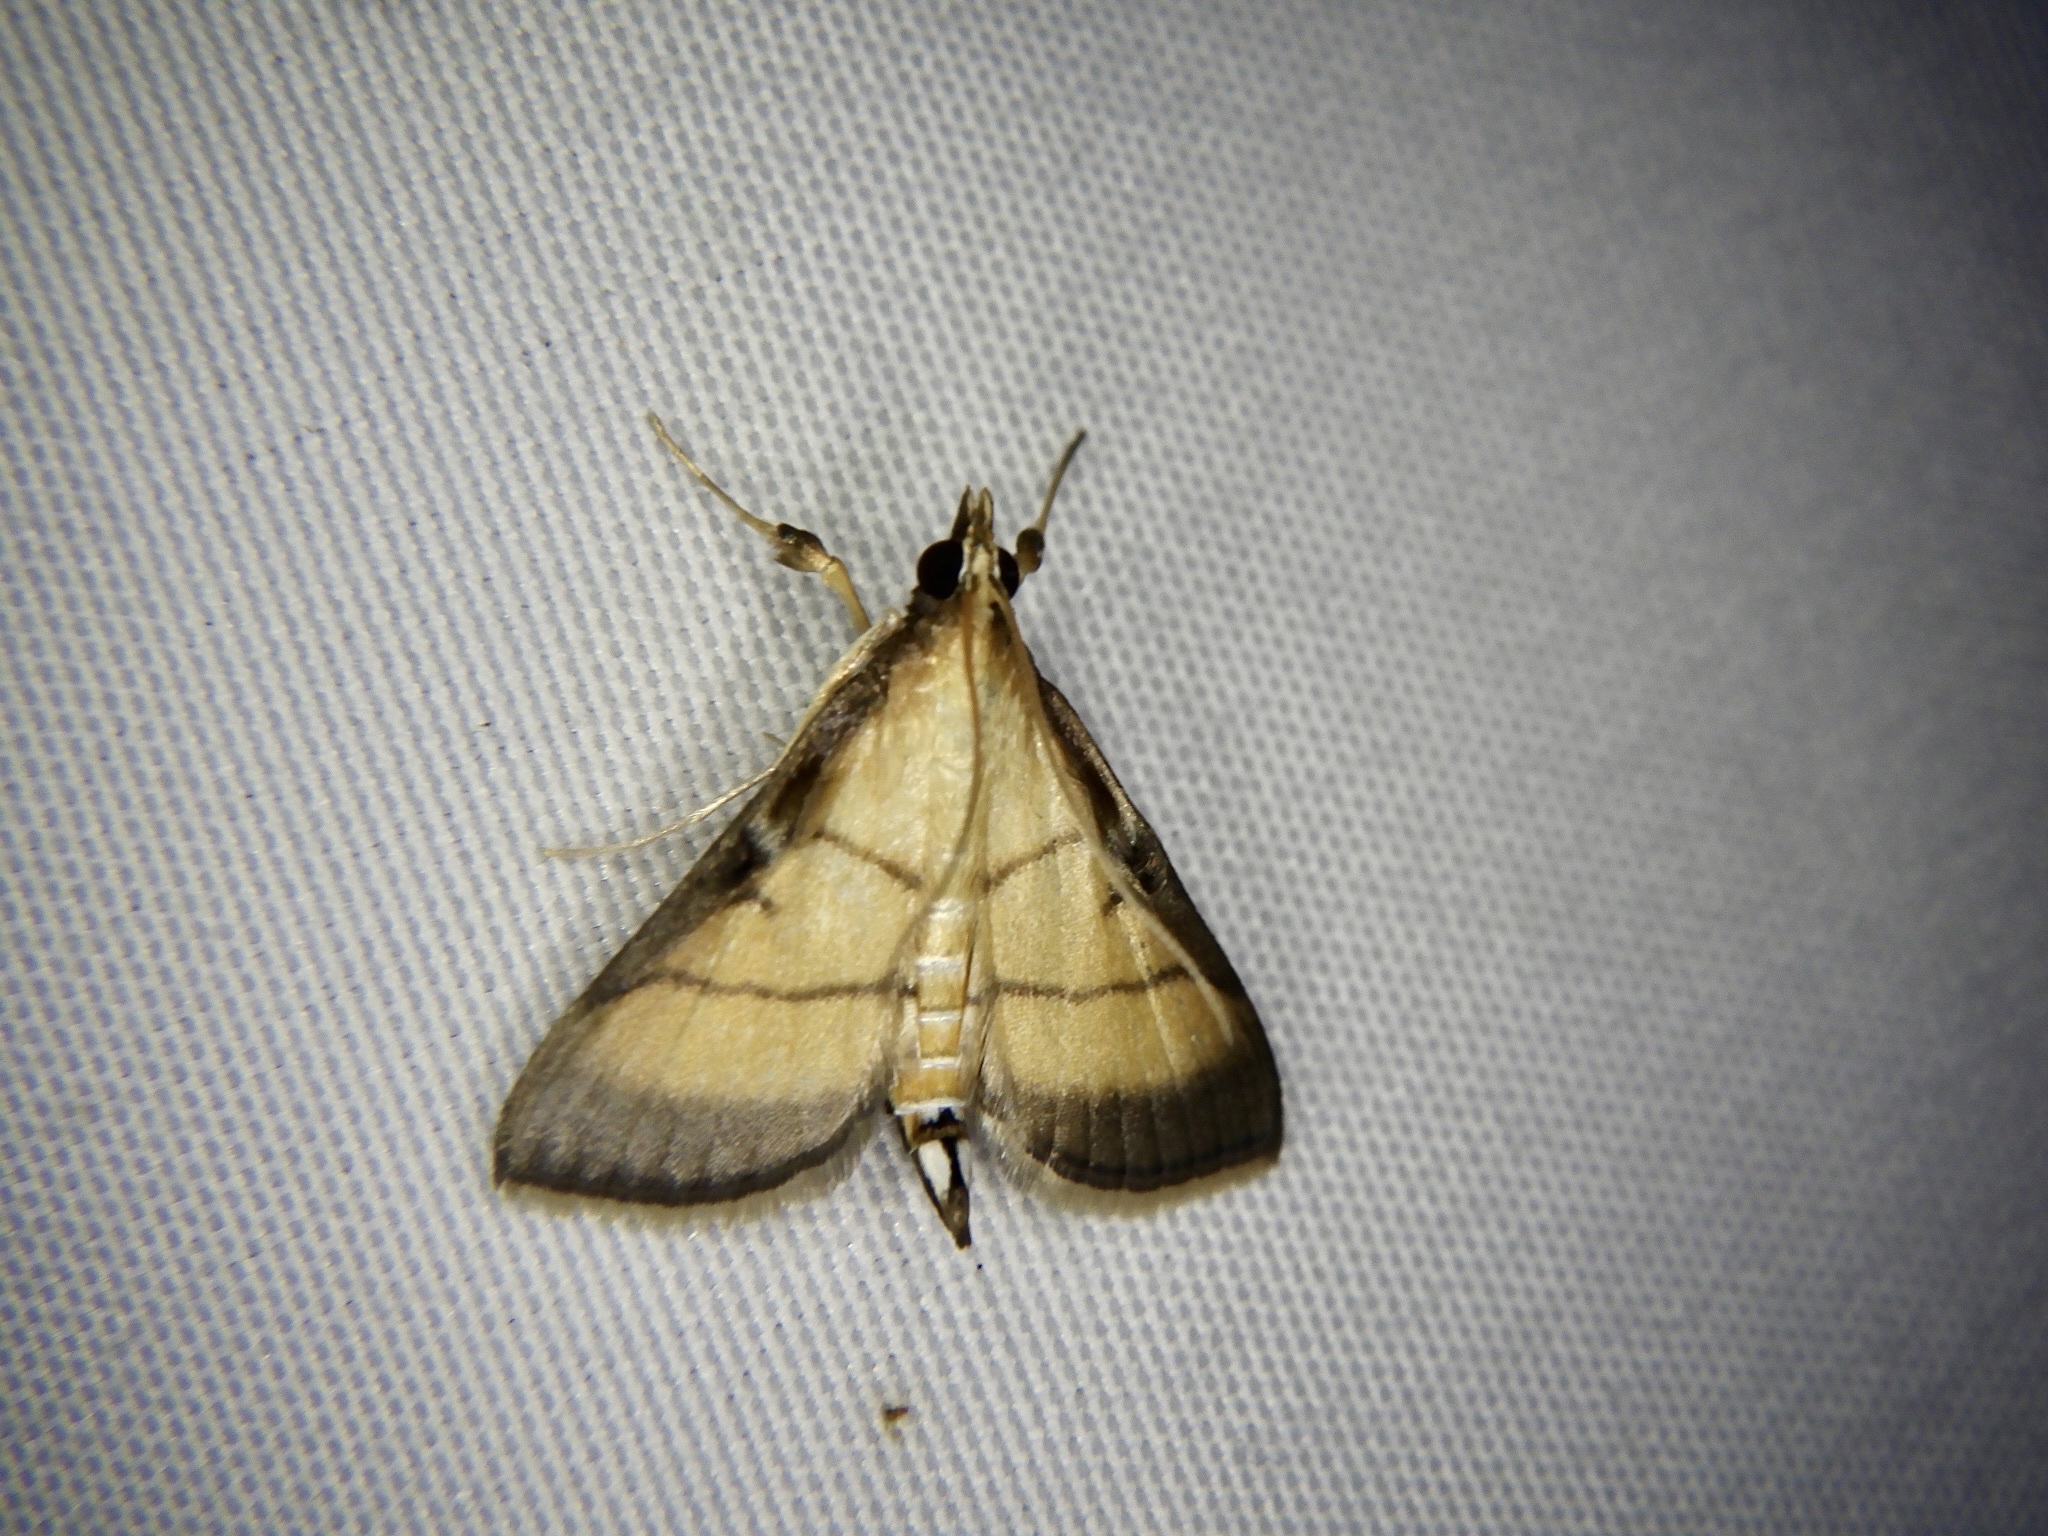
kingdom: Animalia
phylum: Arthropoda
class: Insecta
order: Lepidoptera
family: Crambidae
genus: Cnaphalocrocis
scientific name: Cnaphalocrocis medinalis
